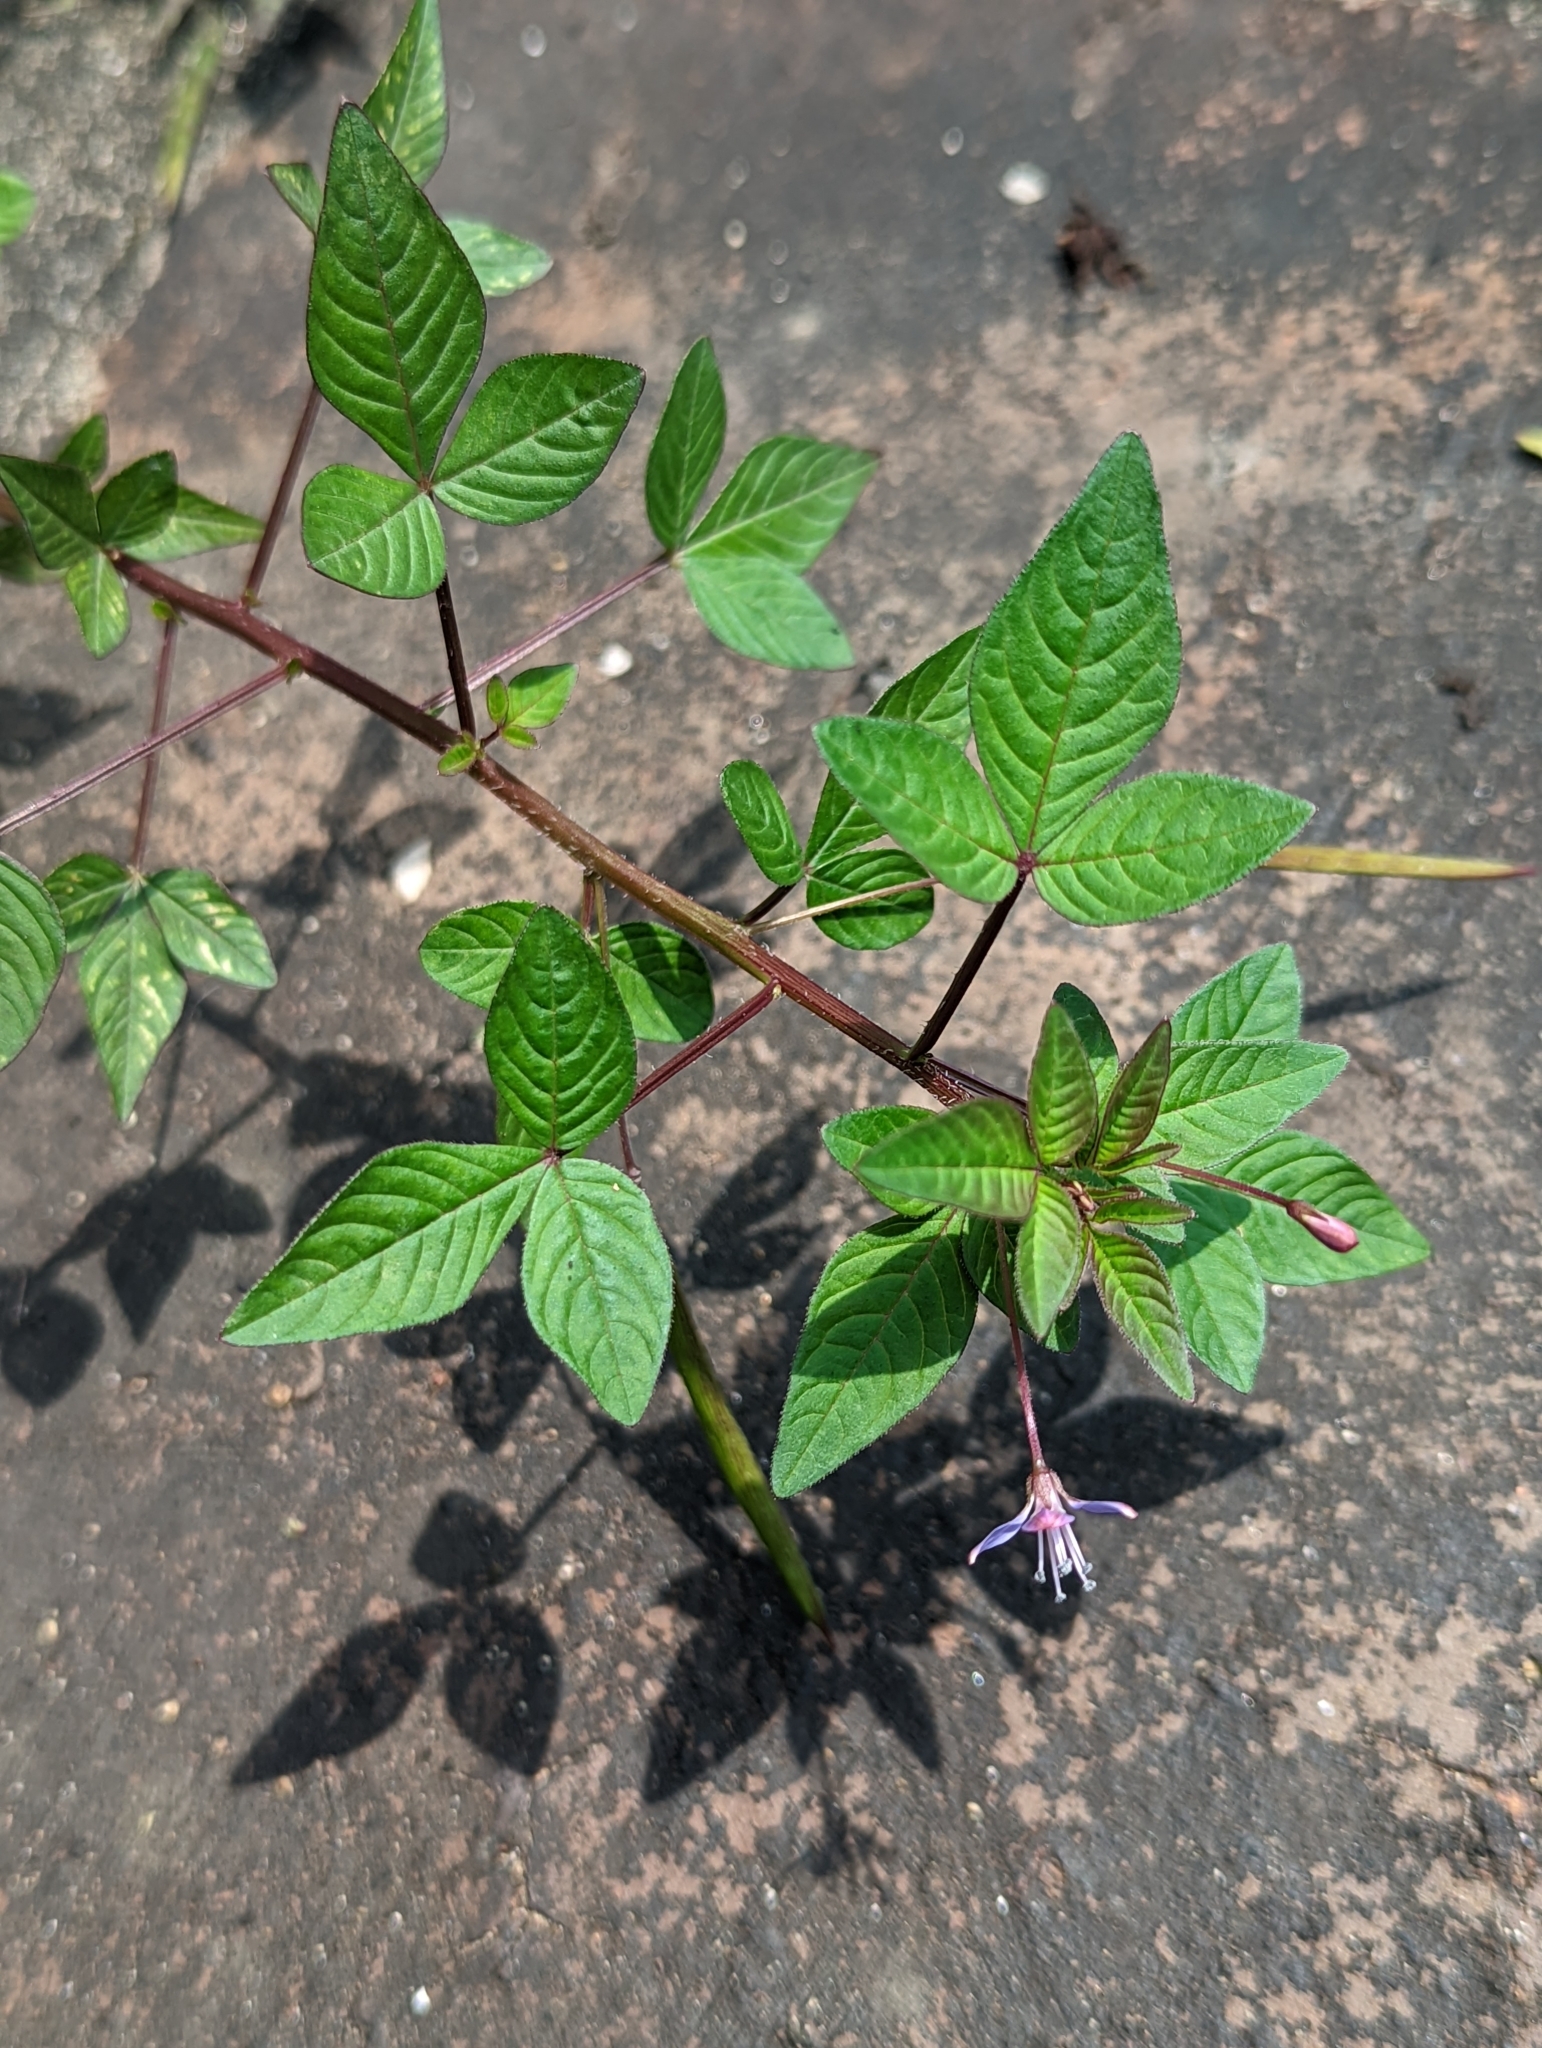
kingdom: Plantae
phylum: Tracheophyta
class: Magnoliopsida
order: Brassicales
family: Cleomaceae
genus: Sieruela
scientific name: Sieruela rutidosperma
